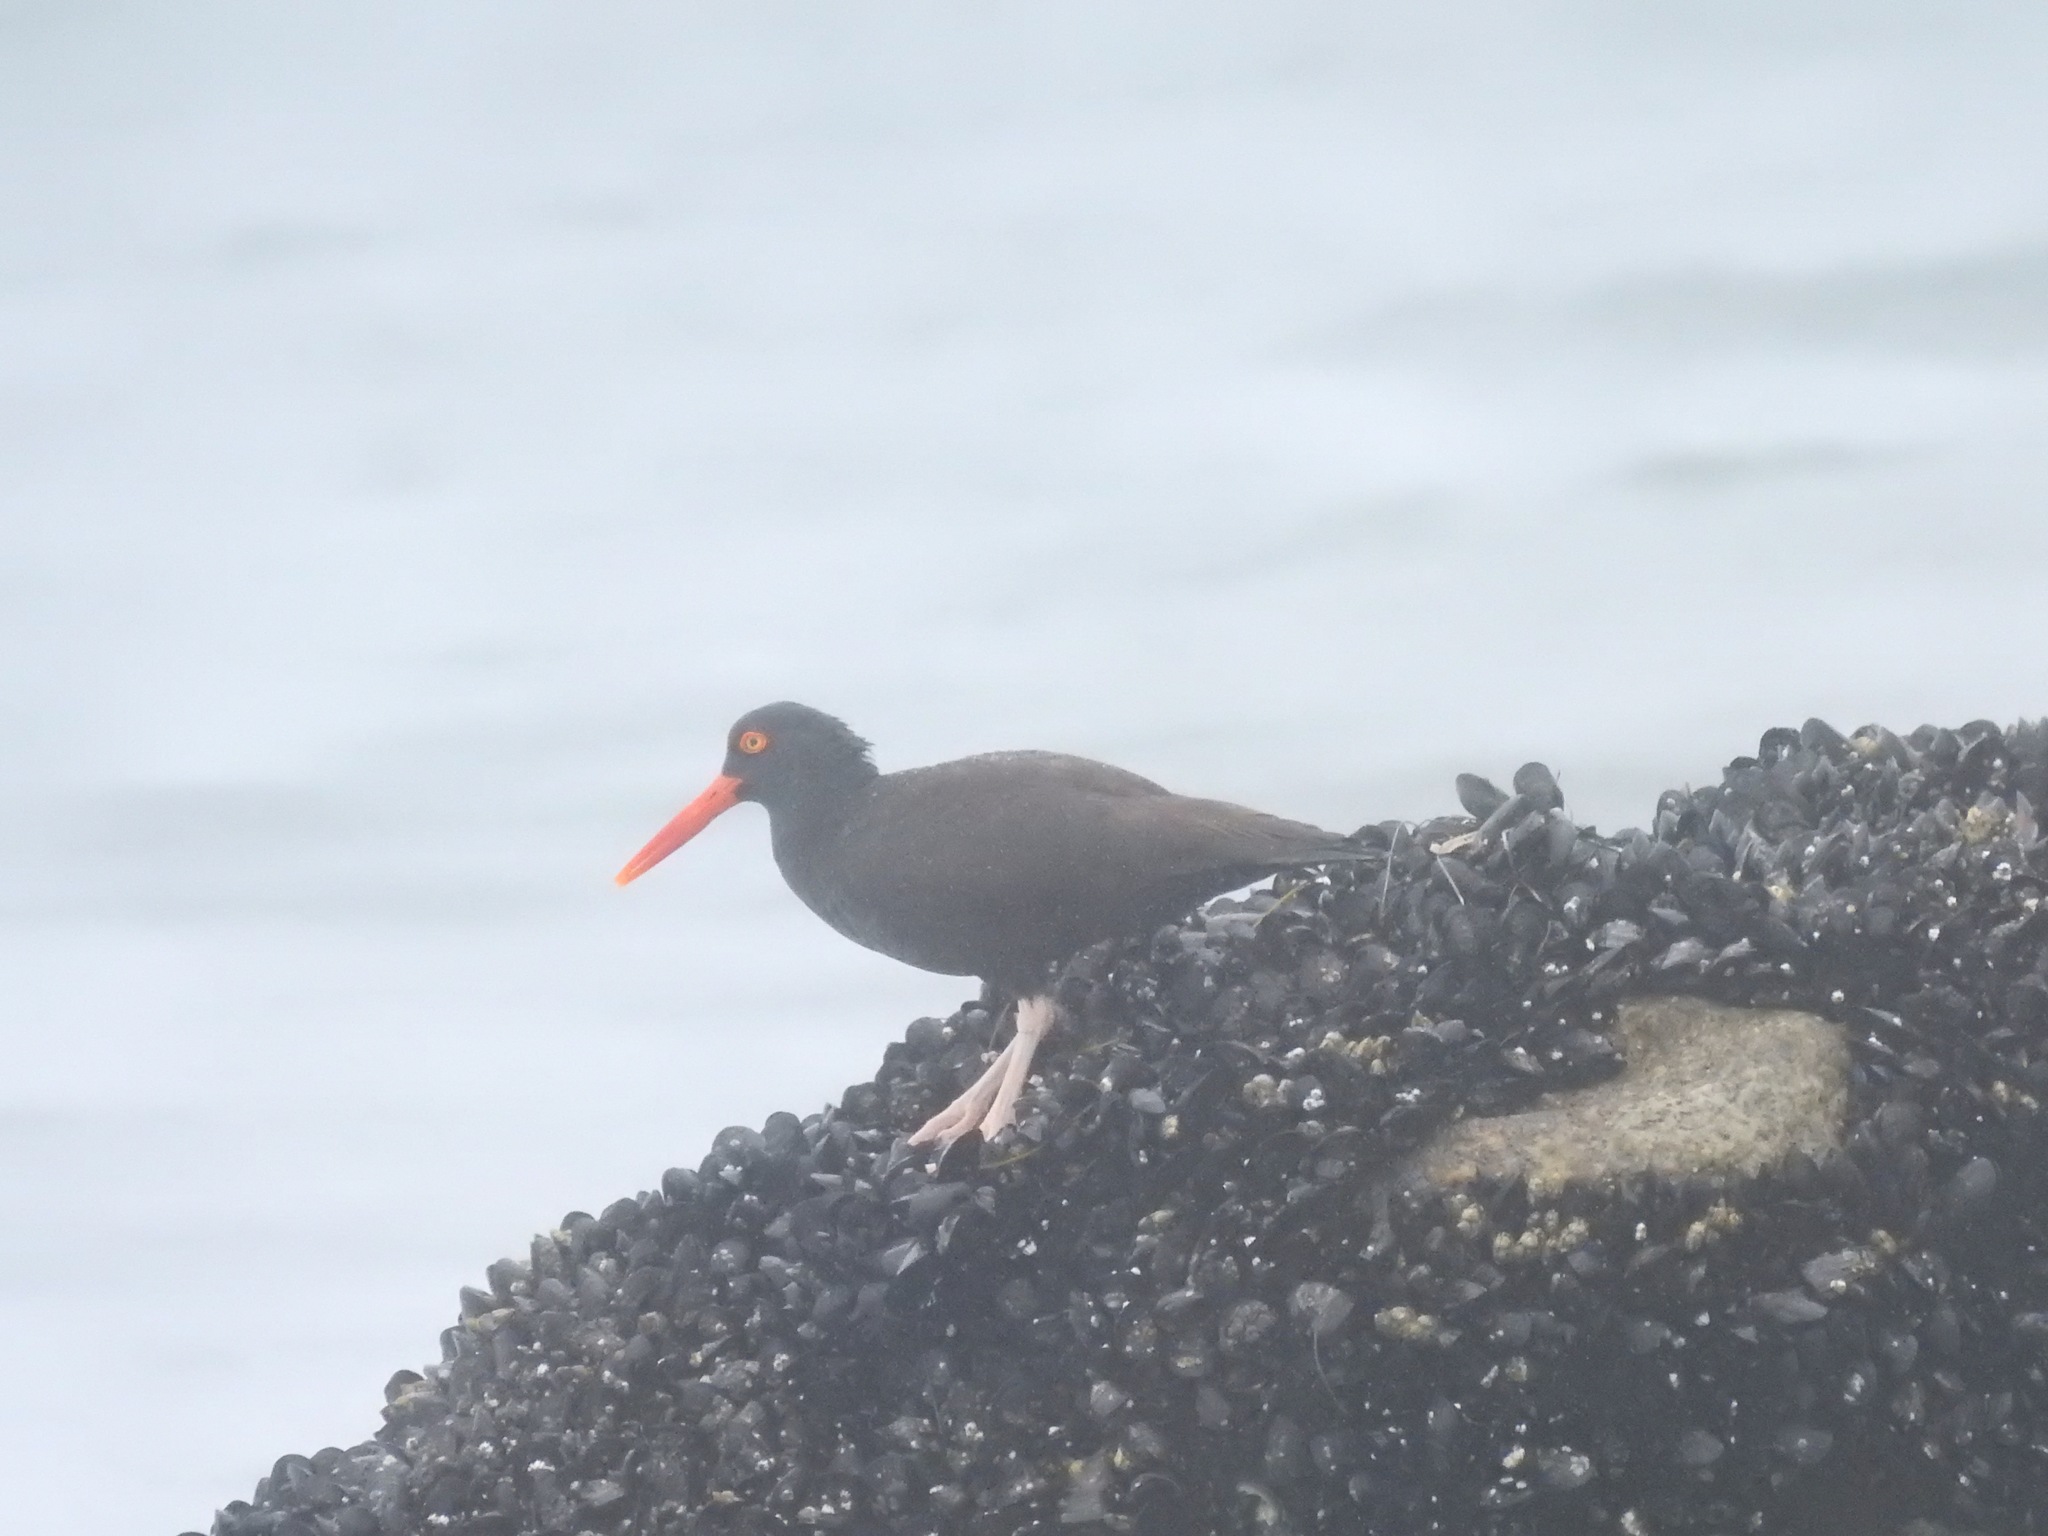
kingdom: Animalia
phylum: Chordata
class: Aves
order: Charadriiformes
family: Haematopodidae
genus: Haematopus
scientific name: Haematopus bachmani
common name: Black oystercatcher
